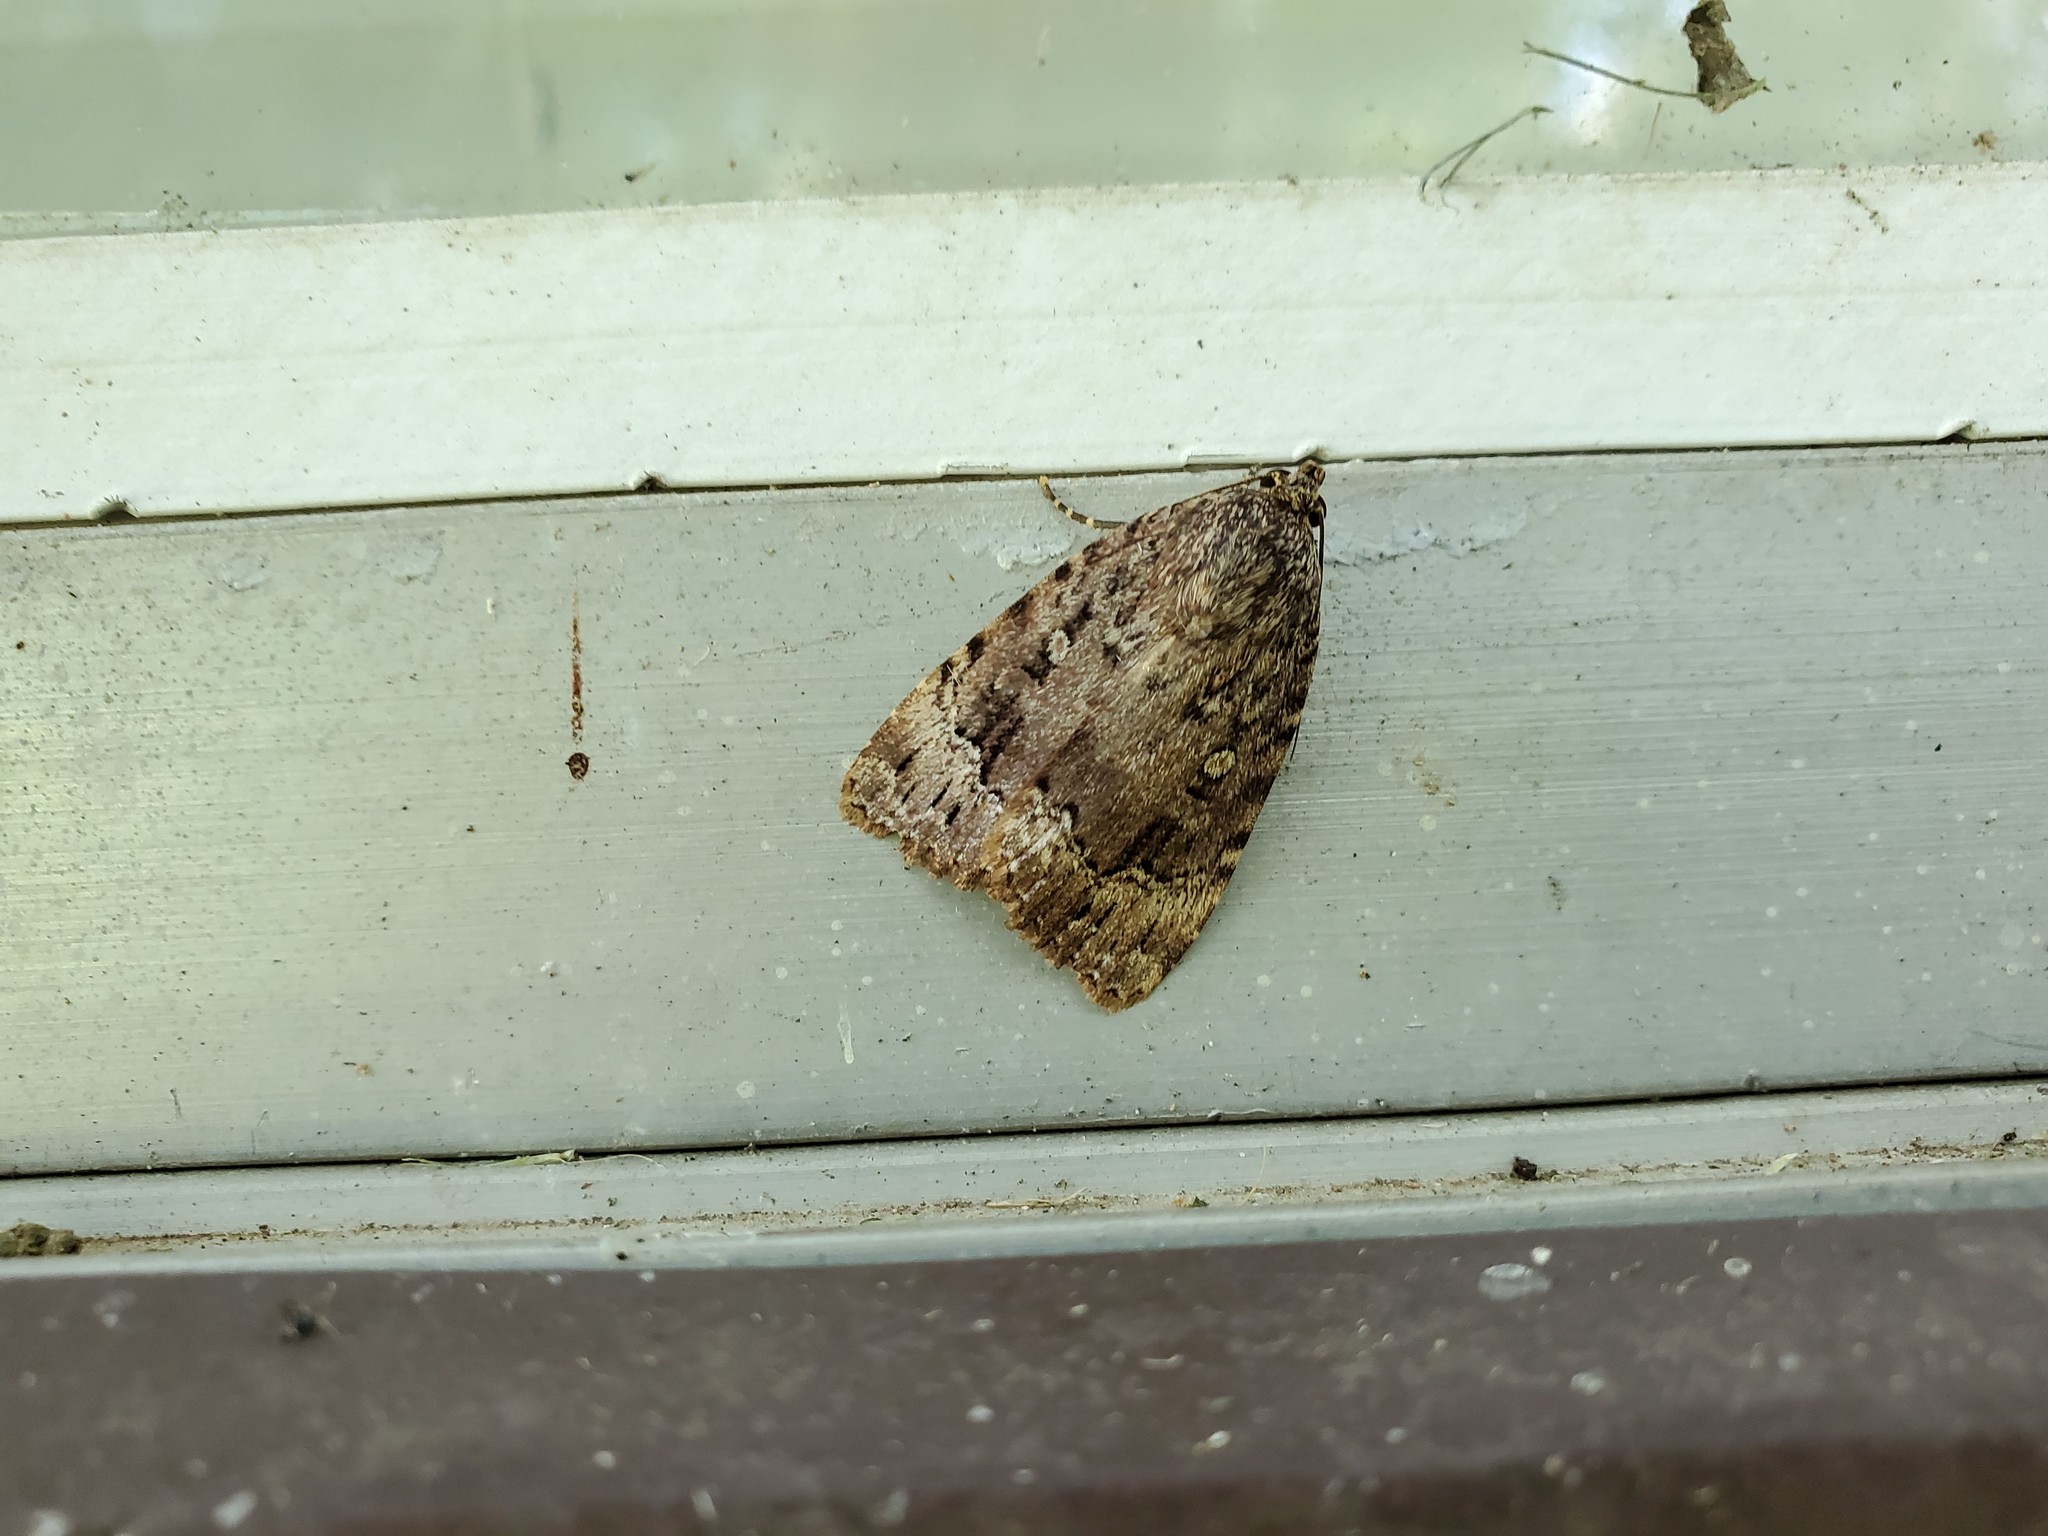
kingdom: Animalia
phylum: Arthropoda
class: Insecta
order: Lepidoptera
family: Noctuidae
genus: Amphipyra
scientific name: Amphipyra pyramidoides
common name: American copper underwing
